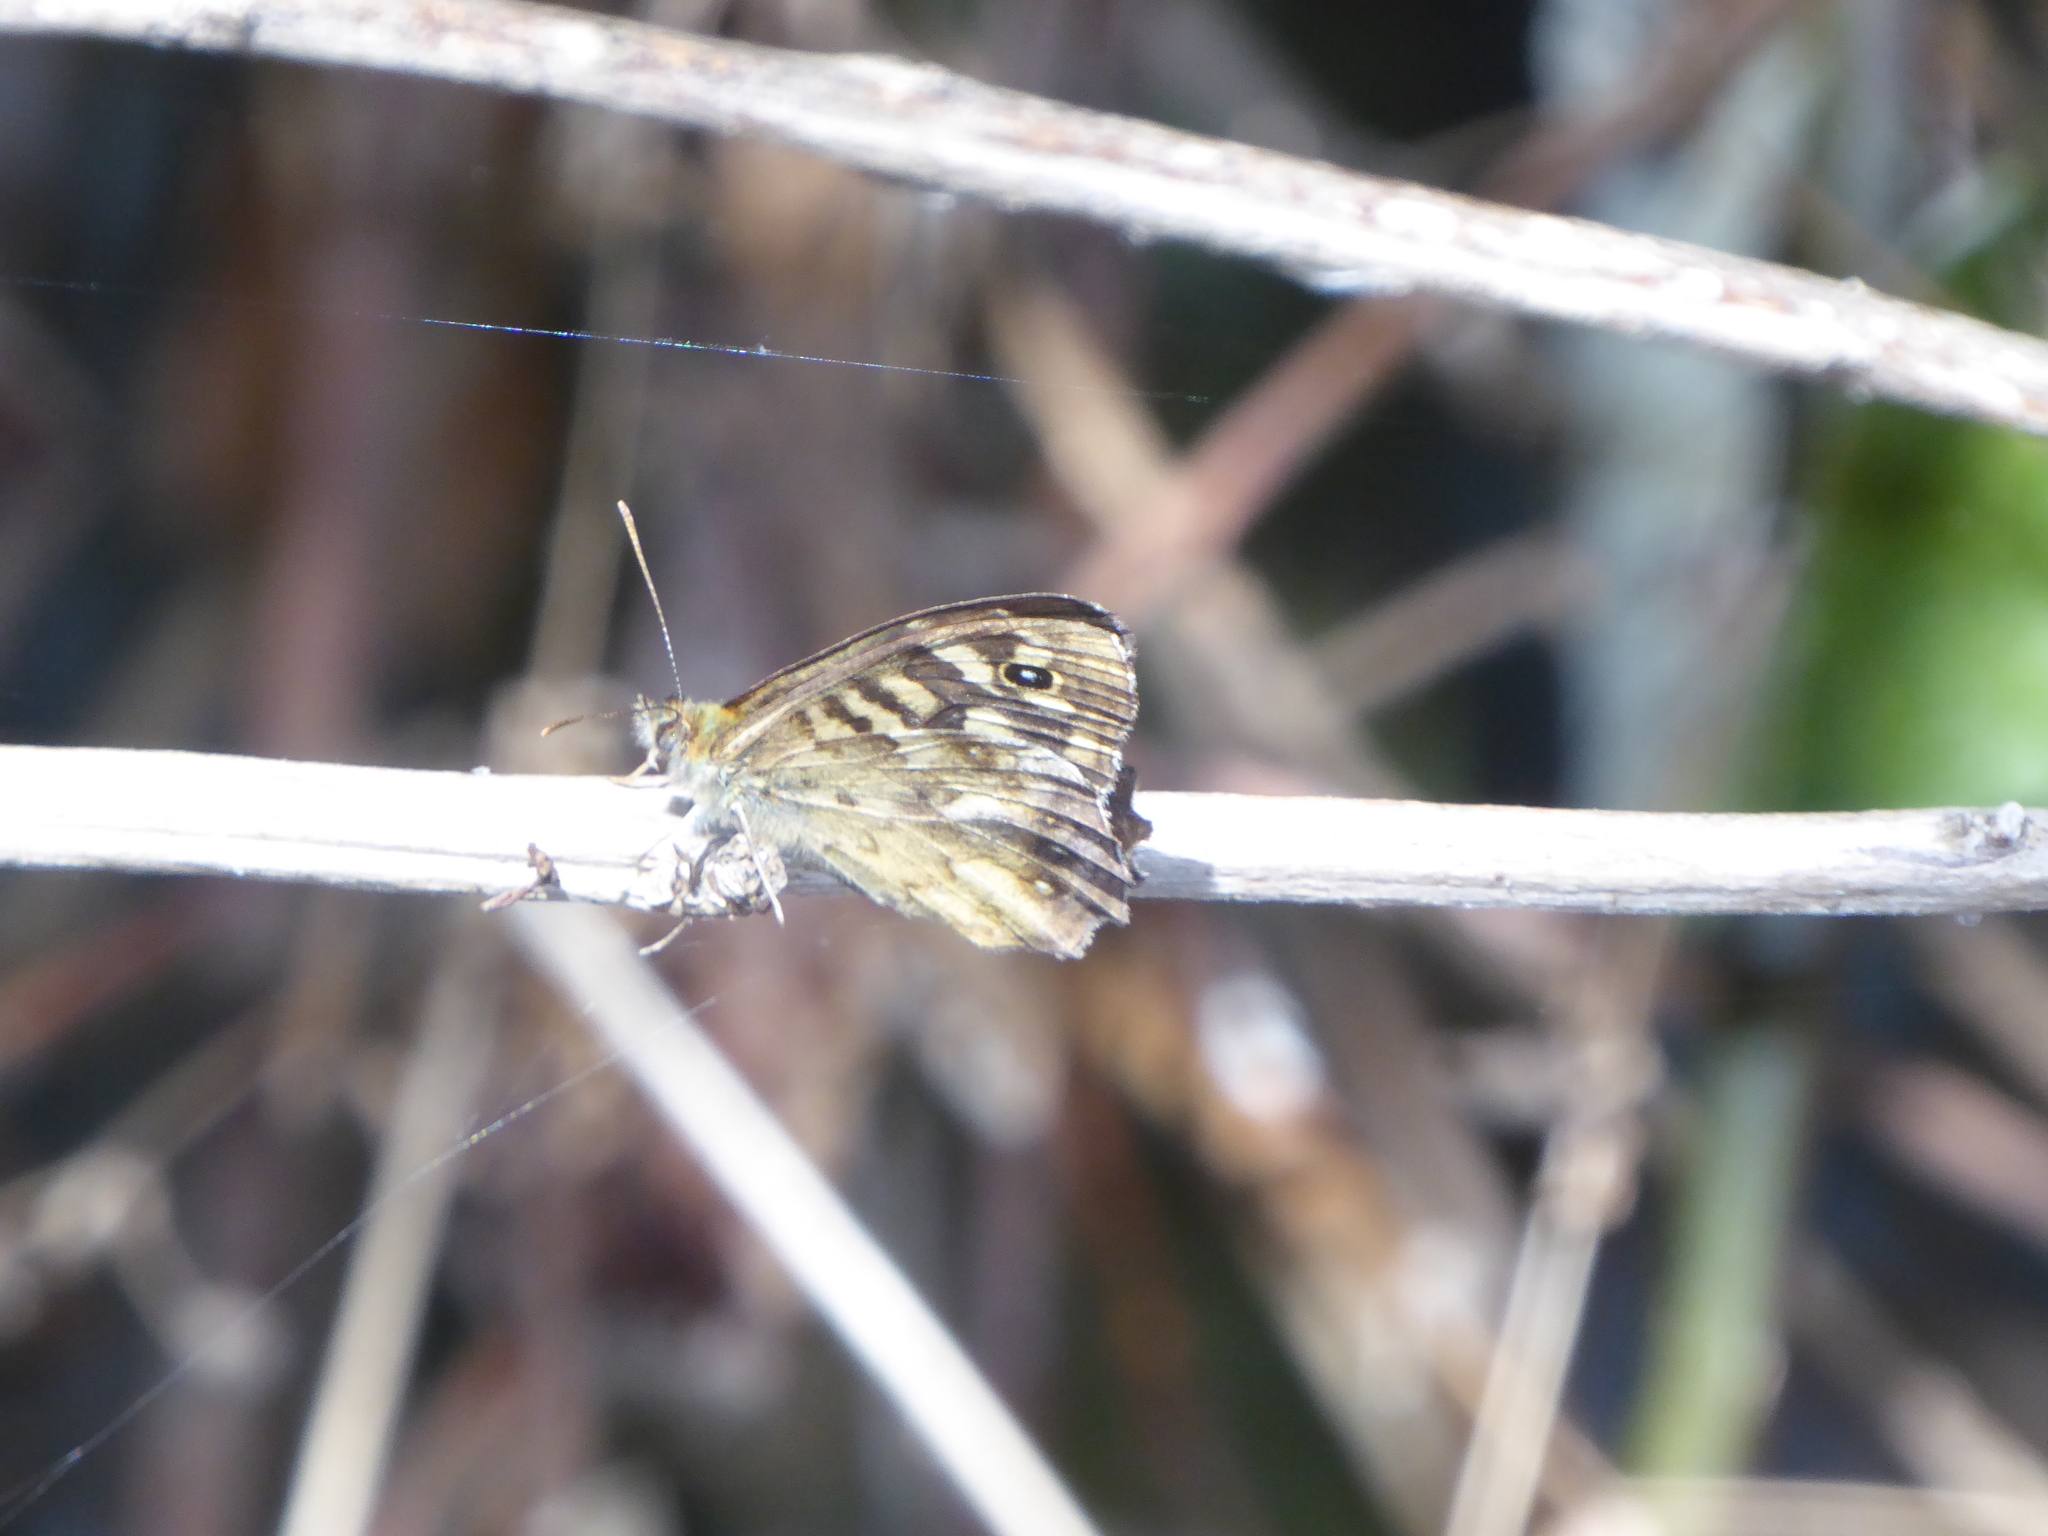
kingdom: Animalia
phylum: Arthropoda
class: Insecta
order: Lepidoptera
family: Nymphalidae
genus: Pararge
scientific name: Pararge aegeria
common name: Speckled wood
